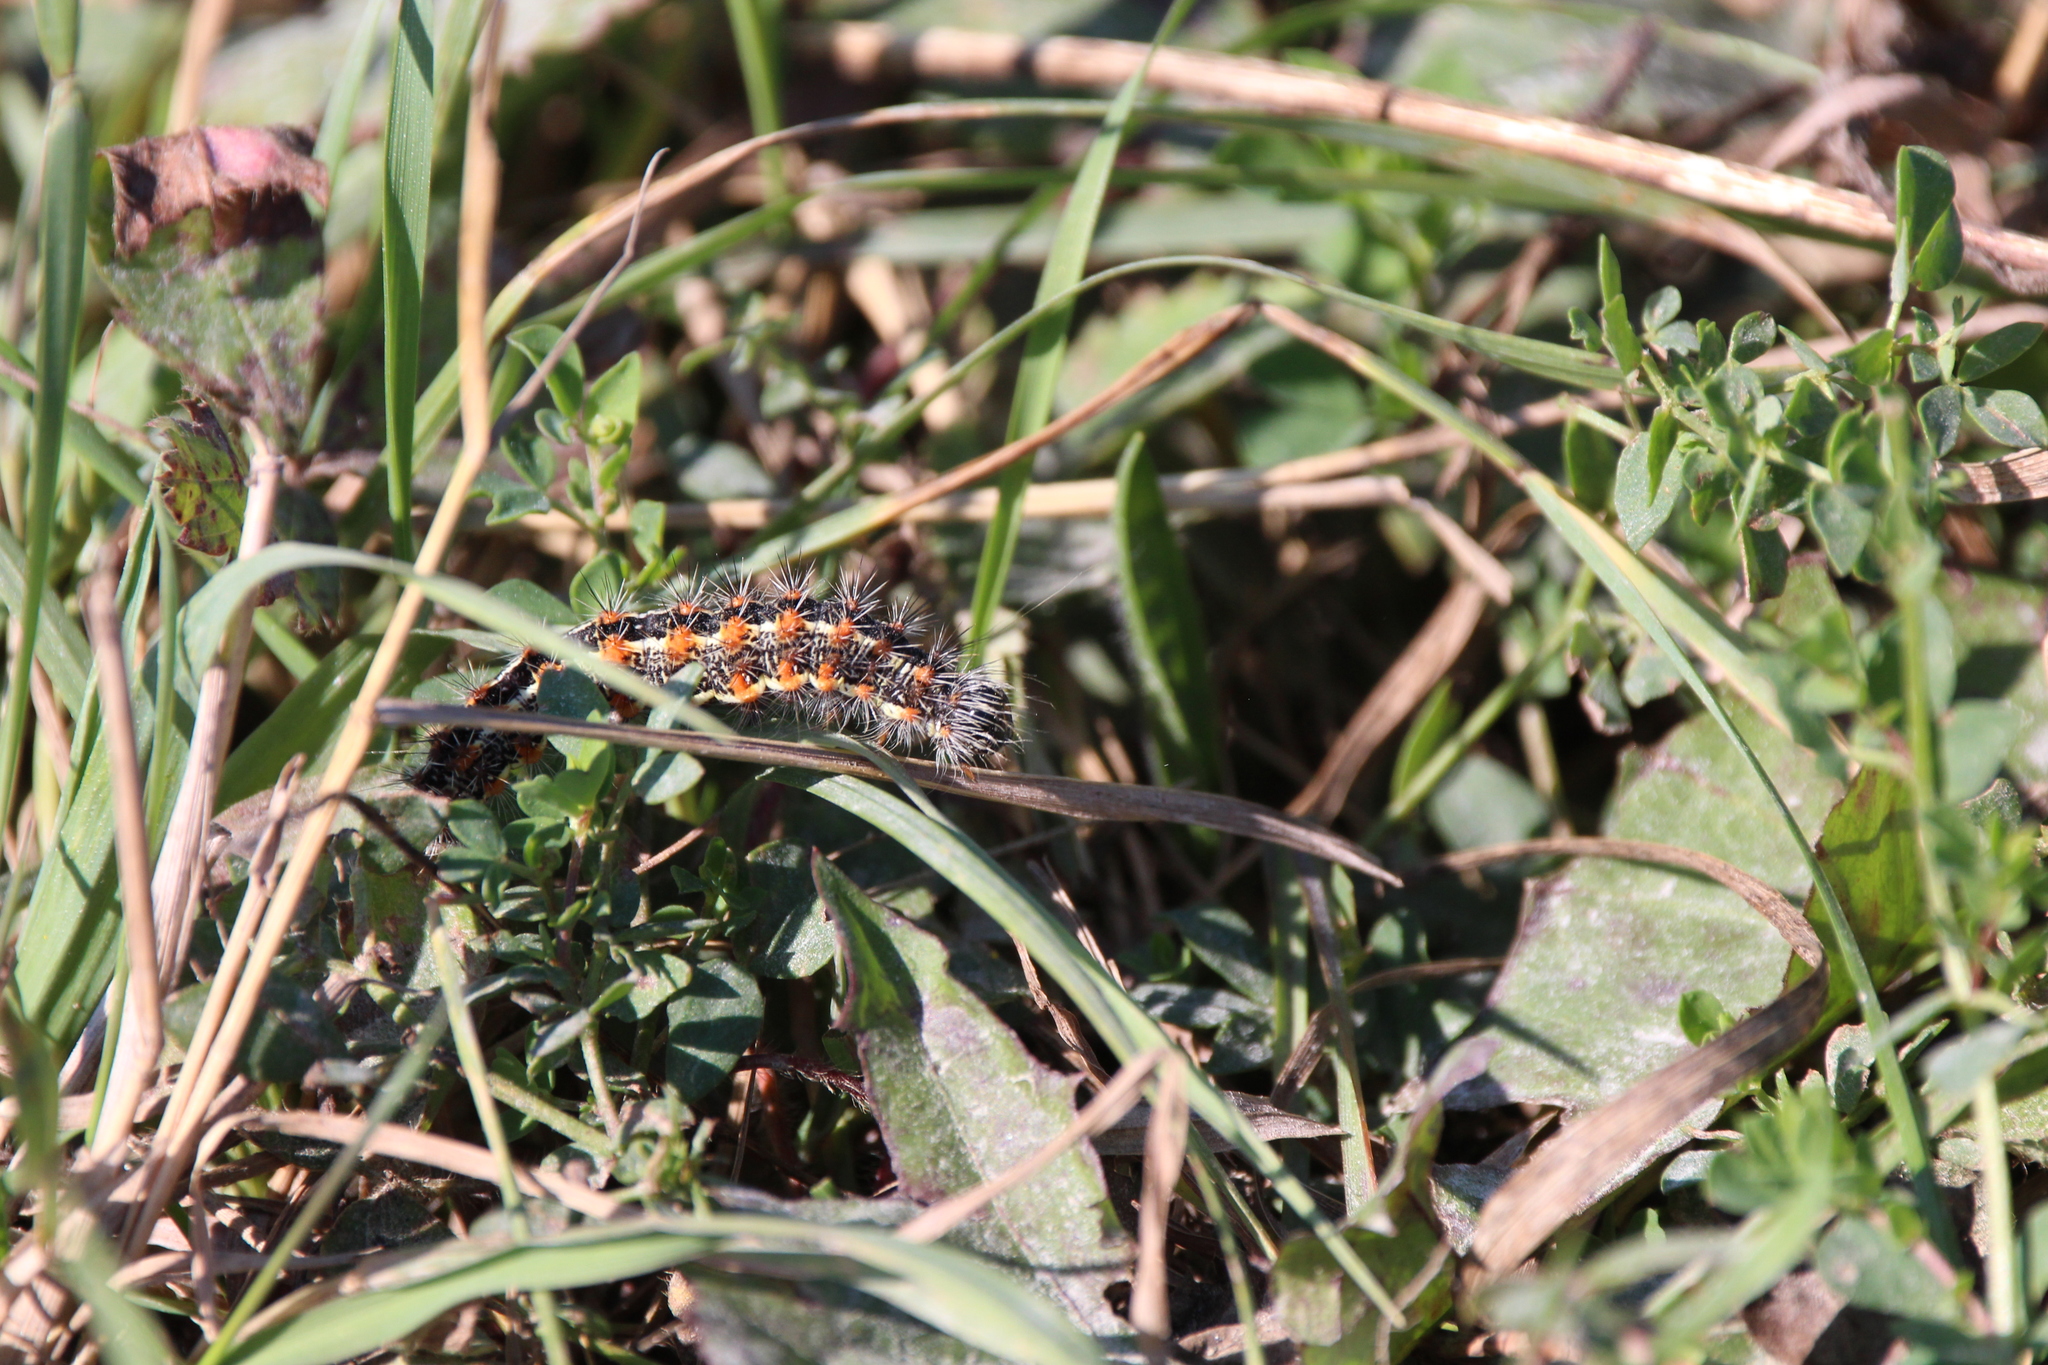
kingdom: Animalia
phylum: Arthropoda
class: Insecta
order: Lepidoptera
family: Noctuidae
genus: Acronicta
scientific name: Acronicta insularis
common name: Henry's marsh moth
